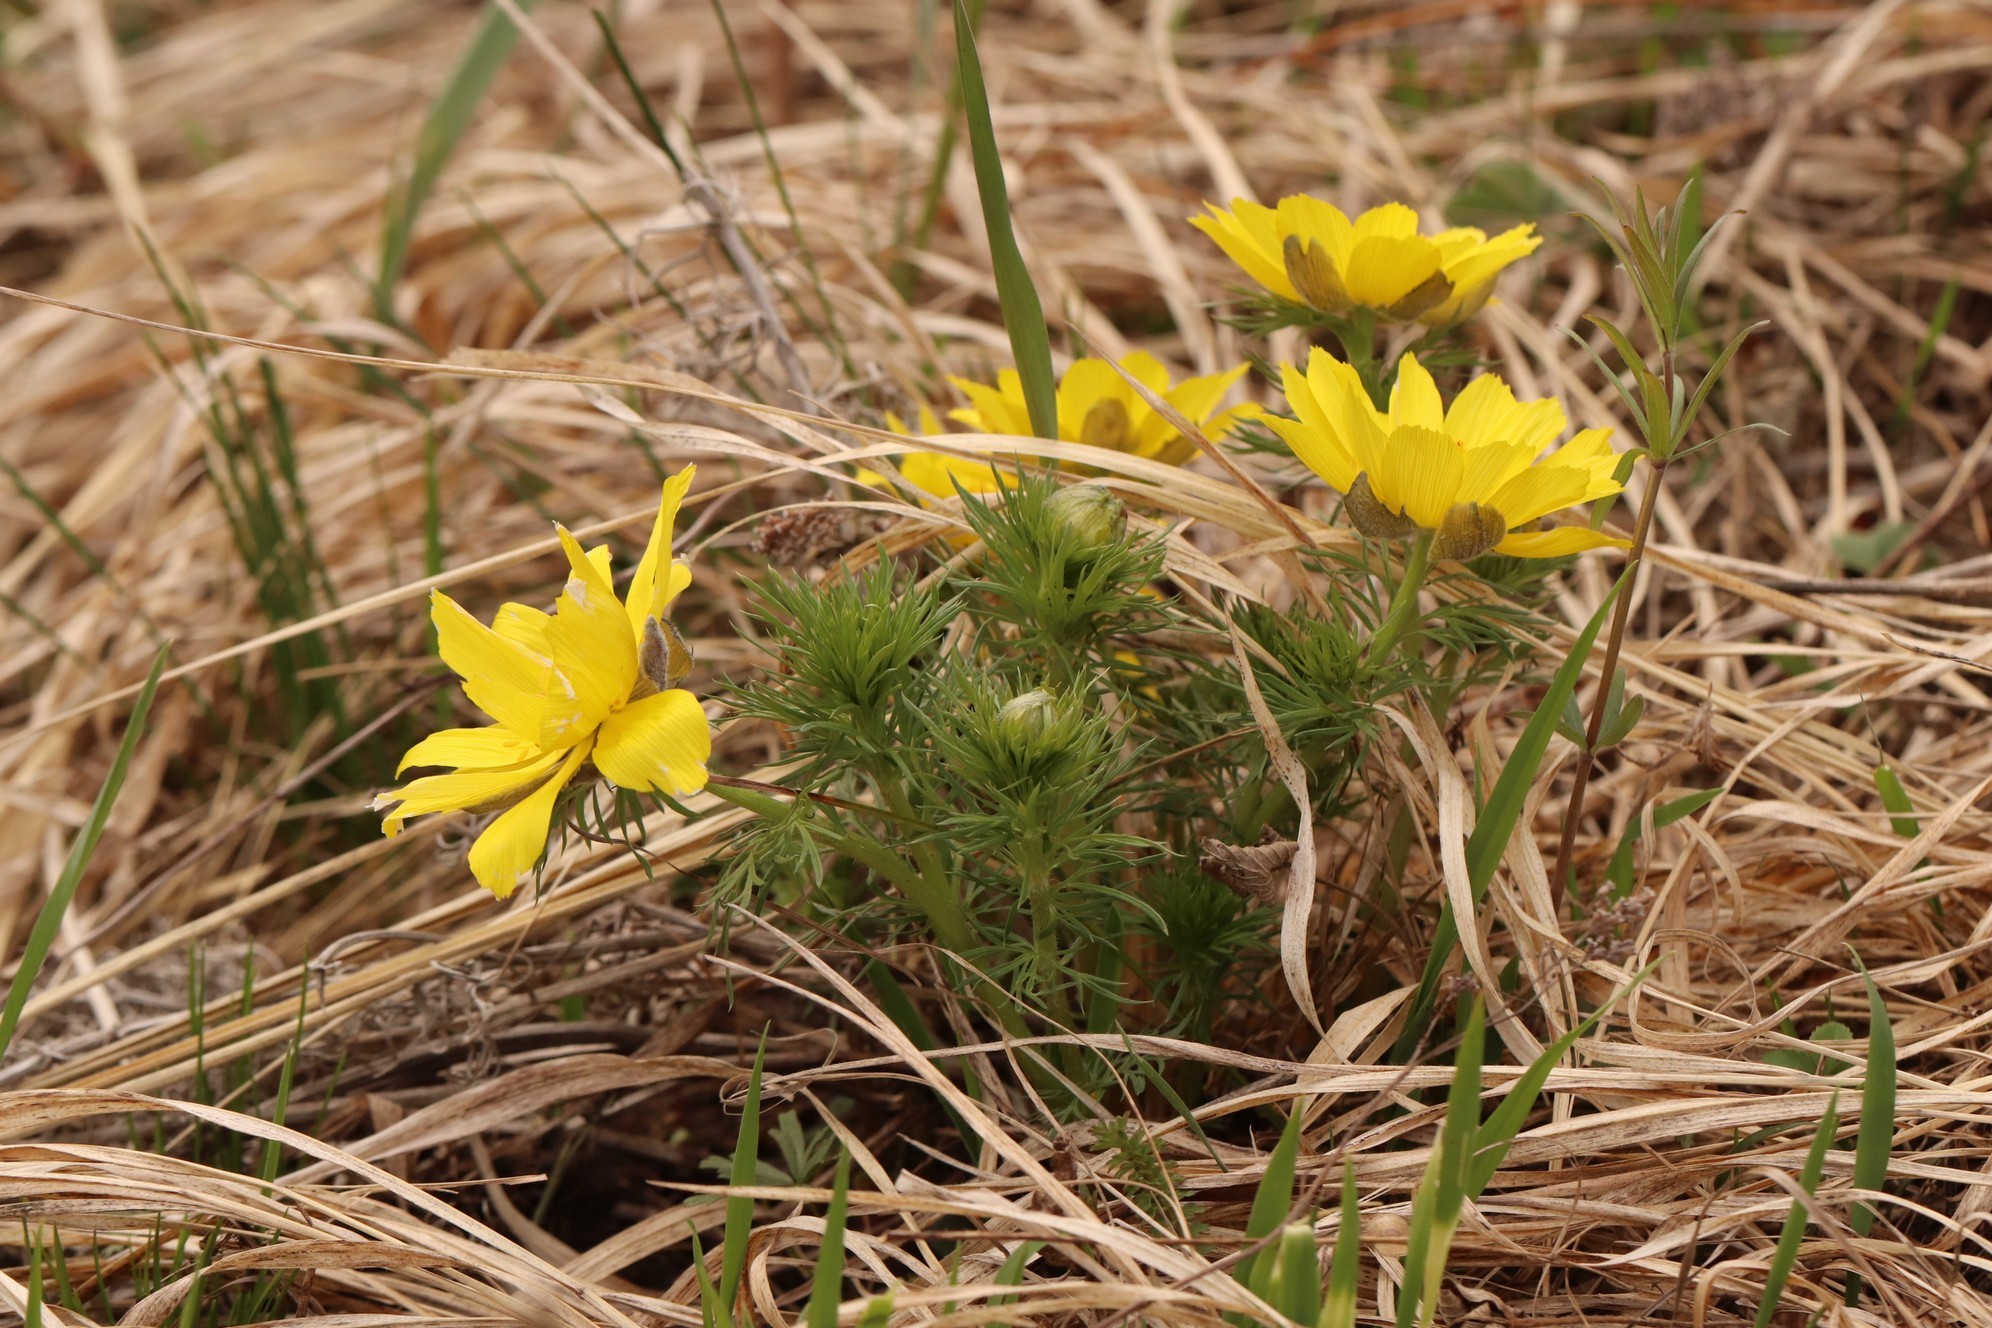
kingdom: Plantae
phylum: Tracheophyta
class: Magnoliopsida
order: Ranunculales
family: Ranunculaceae
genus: Adonis
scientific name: Adonis vernalis
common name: Yellow pheasants-eye
